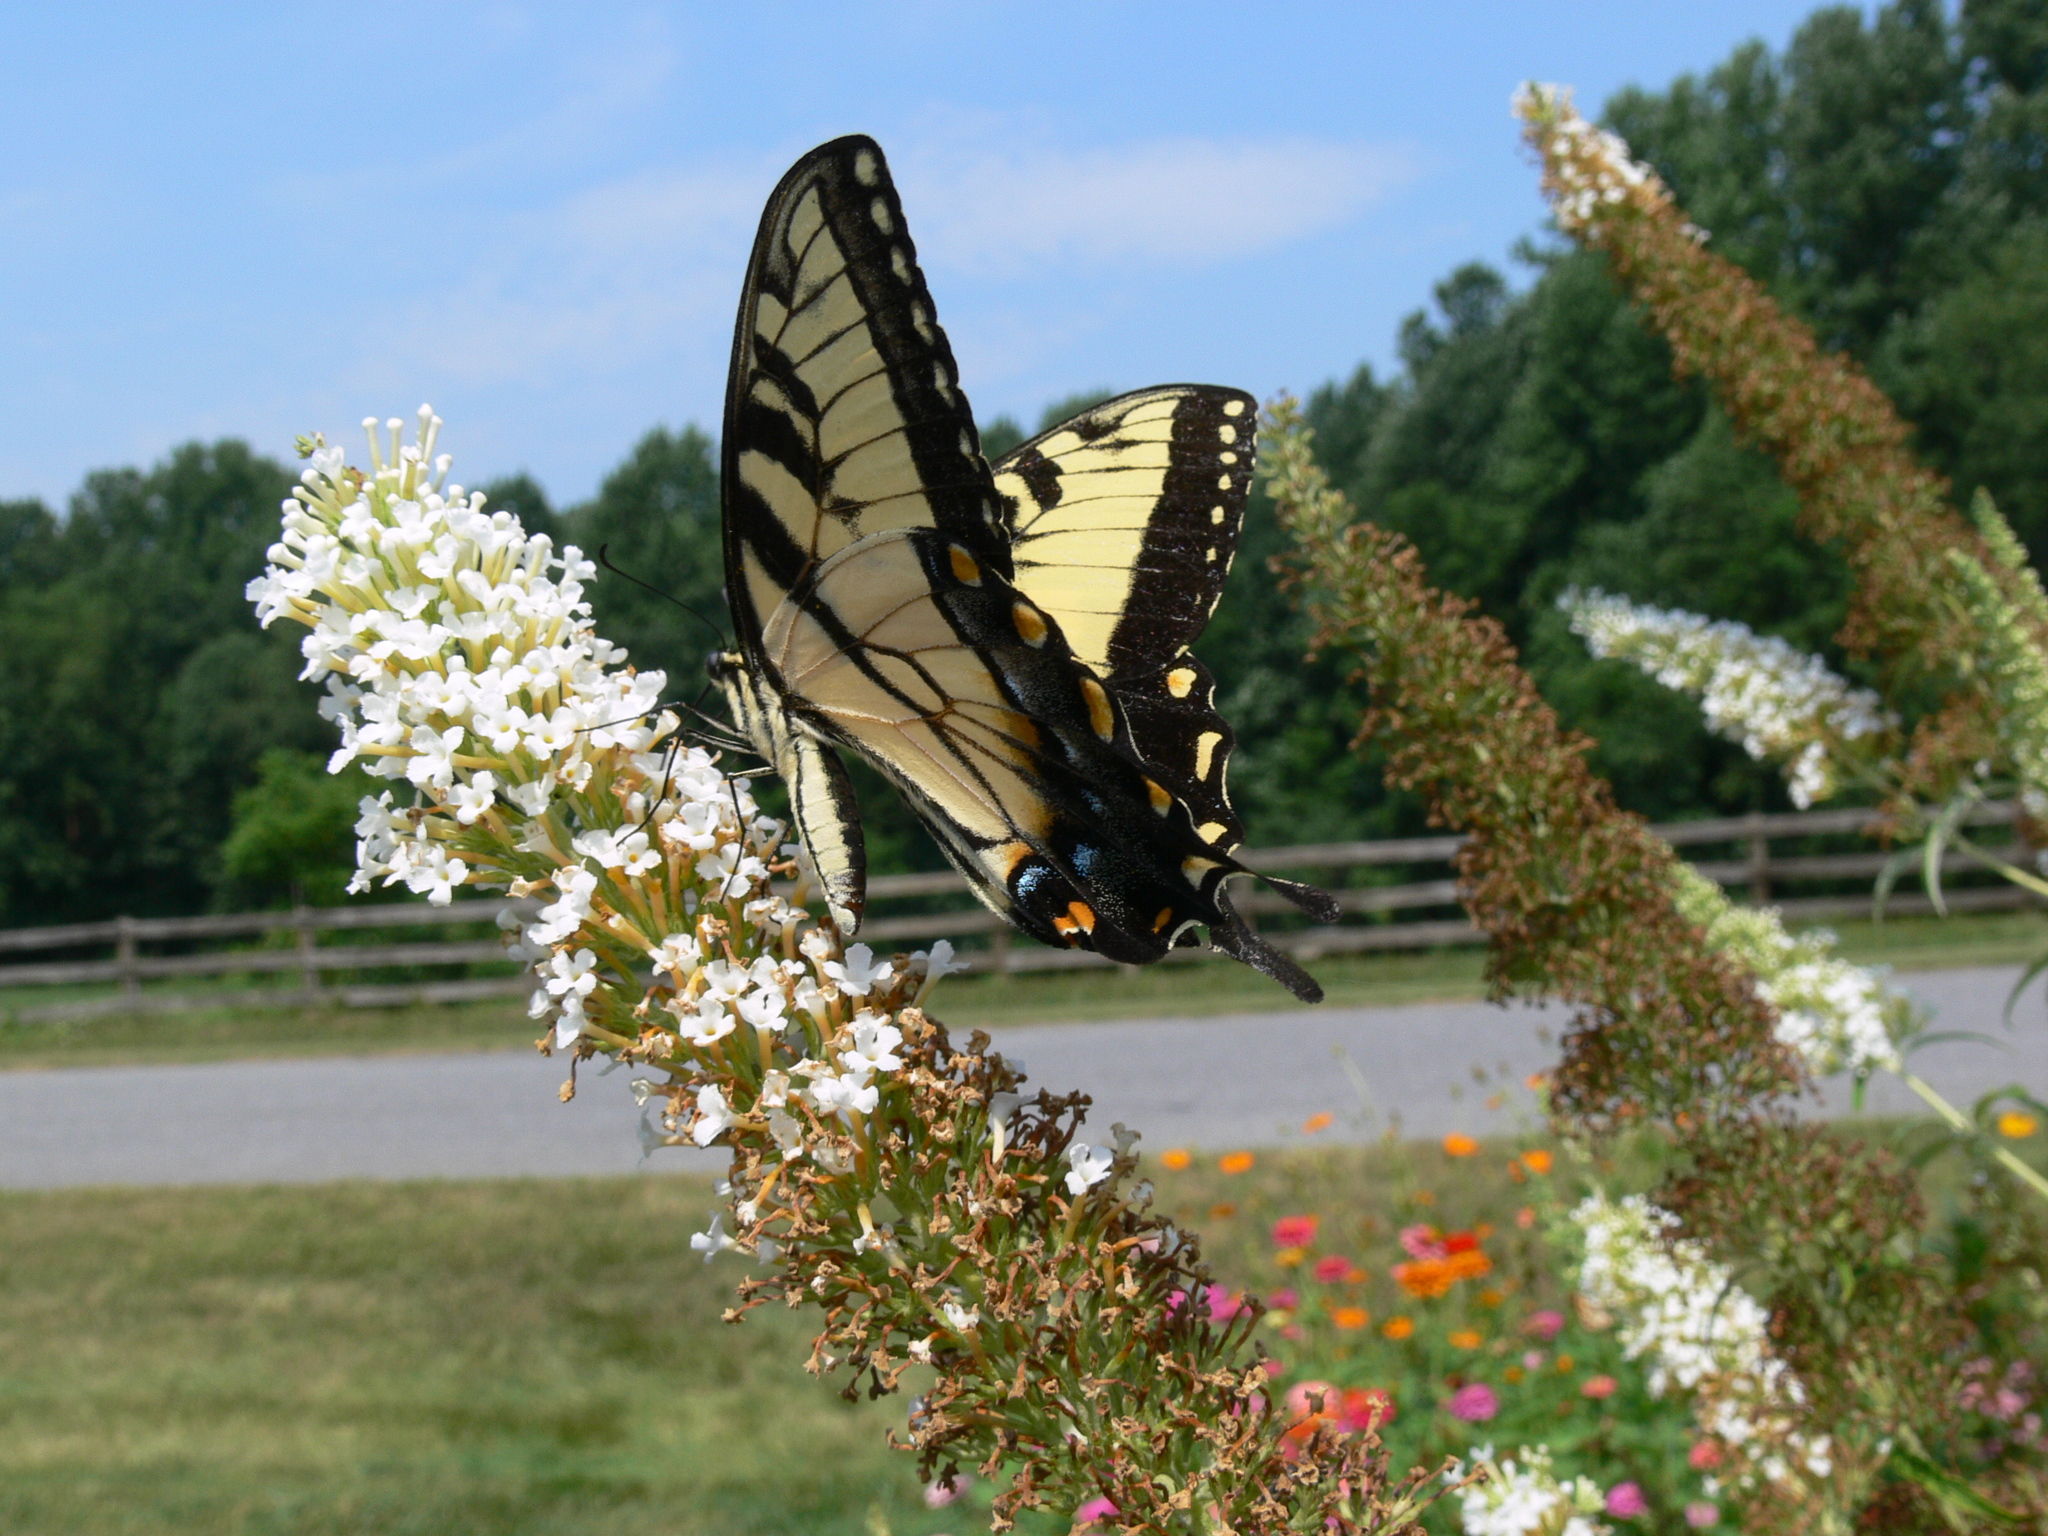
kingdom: Animalia
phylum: Arthropoda
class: Insecta
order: Lepidoptera
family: Papilionidae
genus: Papilio
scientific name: Papilio glaucus
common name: Tiger swallowtail
